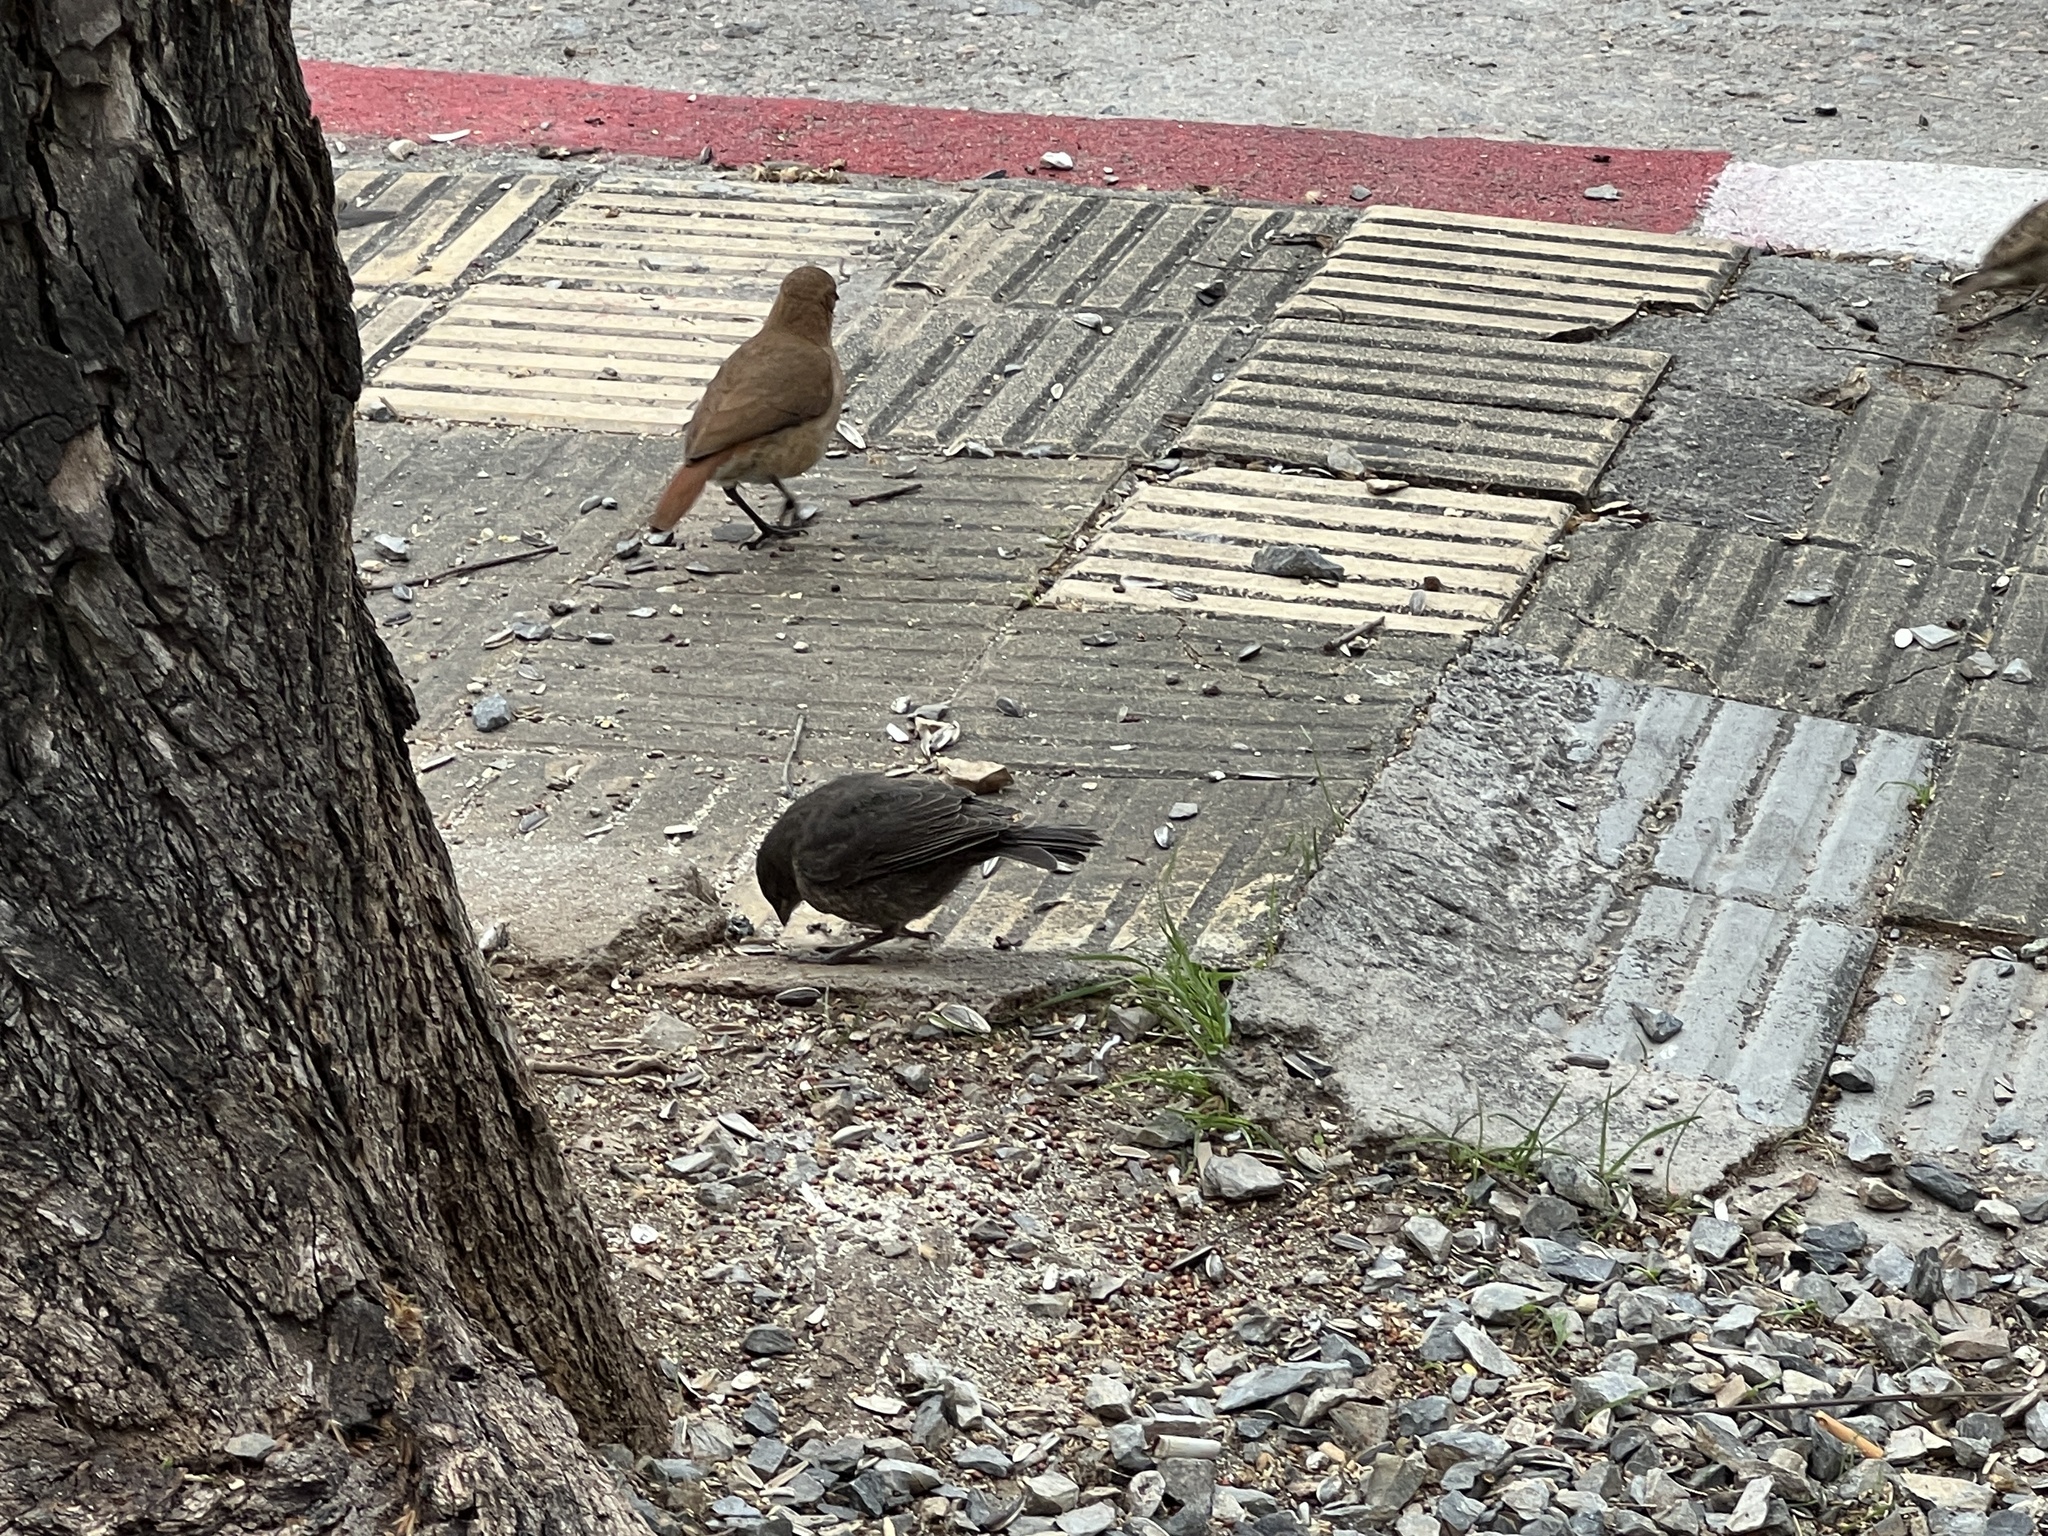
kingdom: Animalia
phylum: Chordata
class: Aves
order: Passeriformes
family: Furnariidae
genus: Furnarius
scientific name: Furnarius rufus
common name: Rufous hornero
